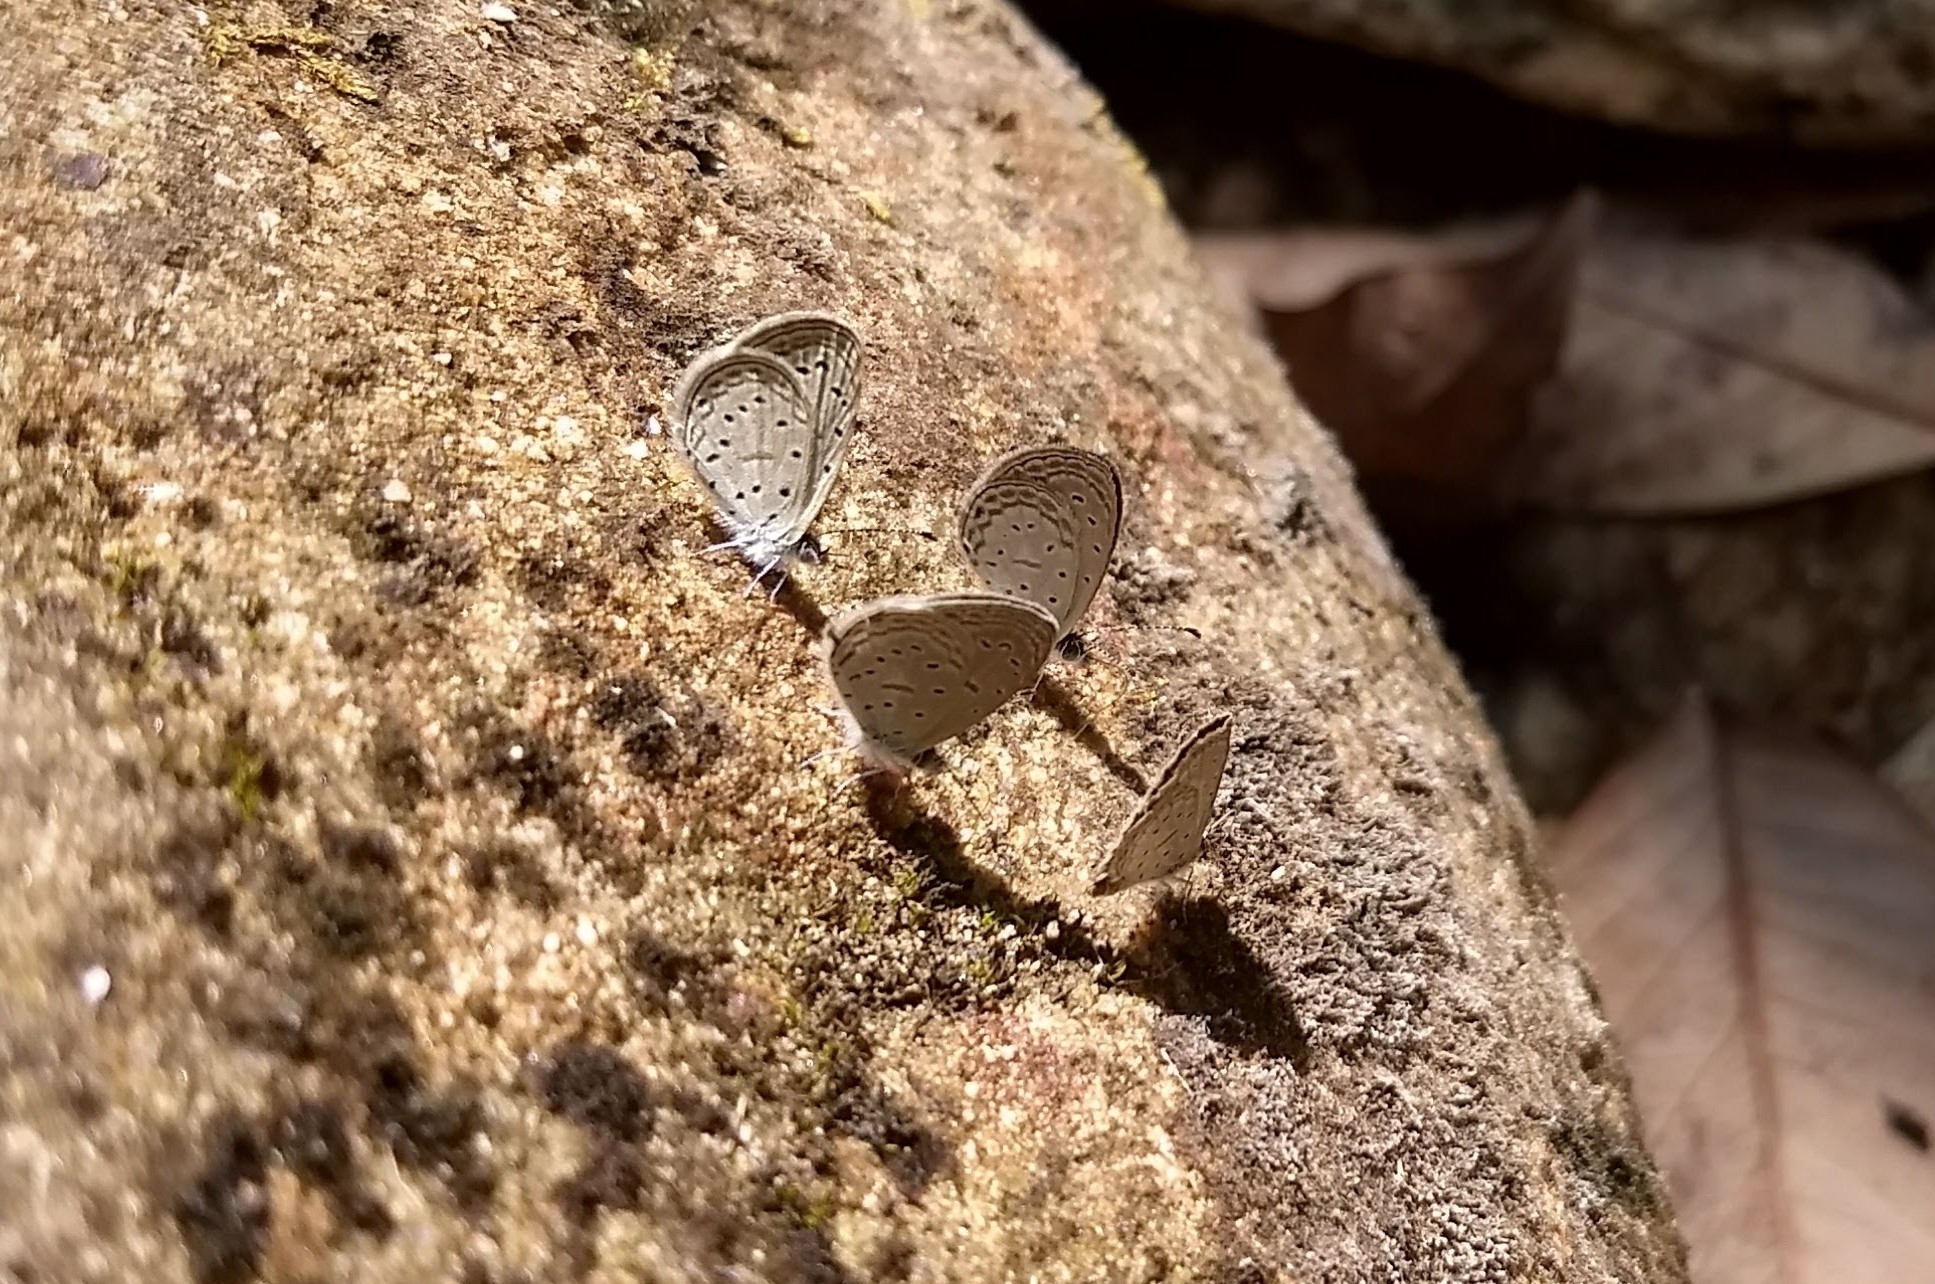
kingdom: Animalia
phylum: Arthropoda
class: Insecta
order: Lepidoptera
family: Lycaenidae
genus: Zizula
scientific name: Zizula hylax
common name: Gaika blue
